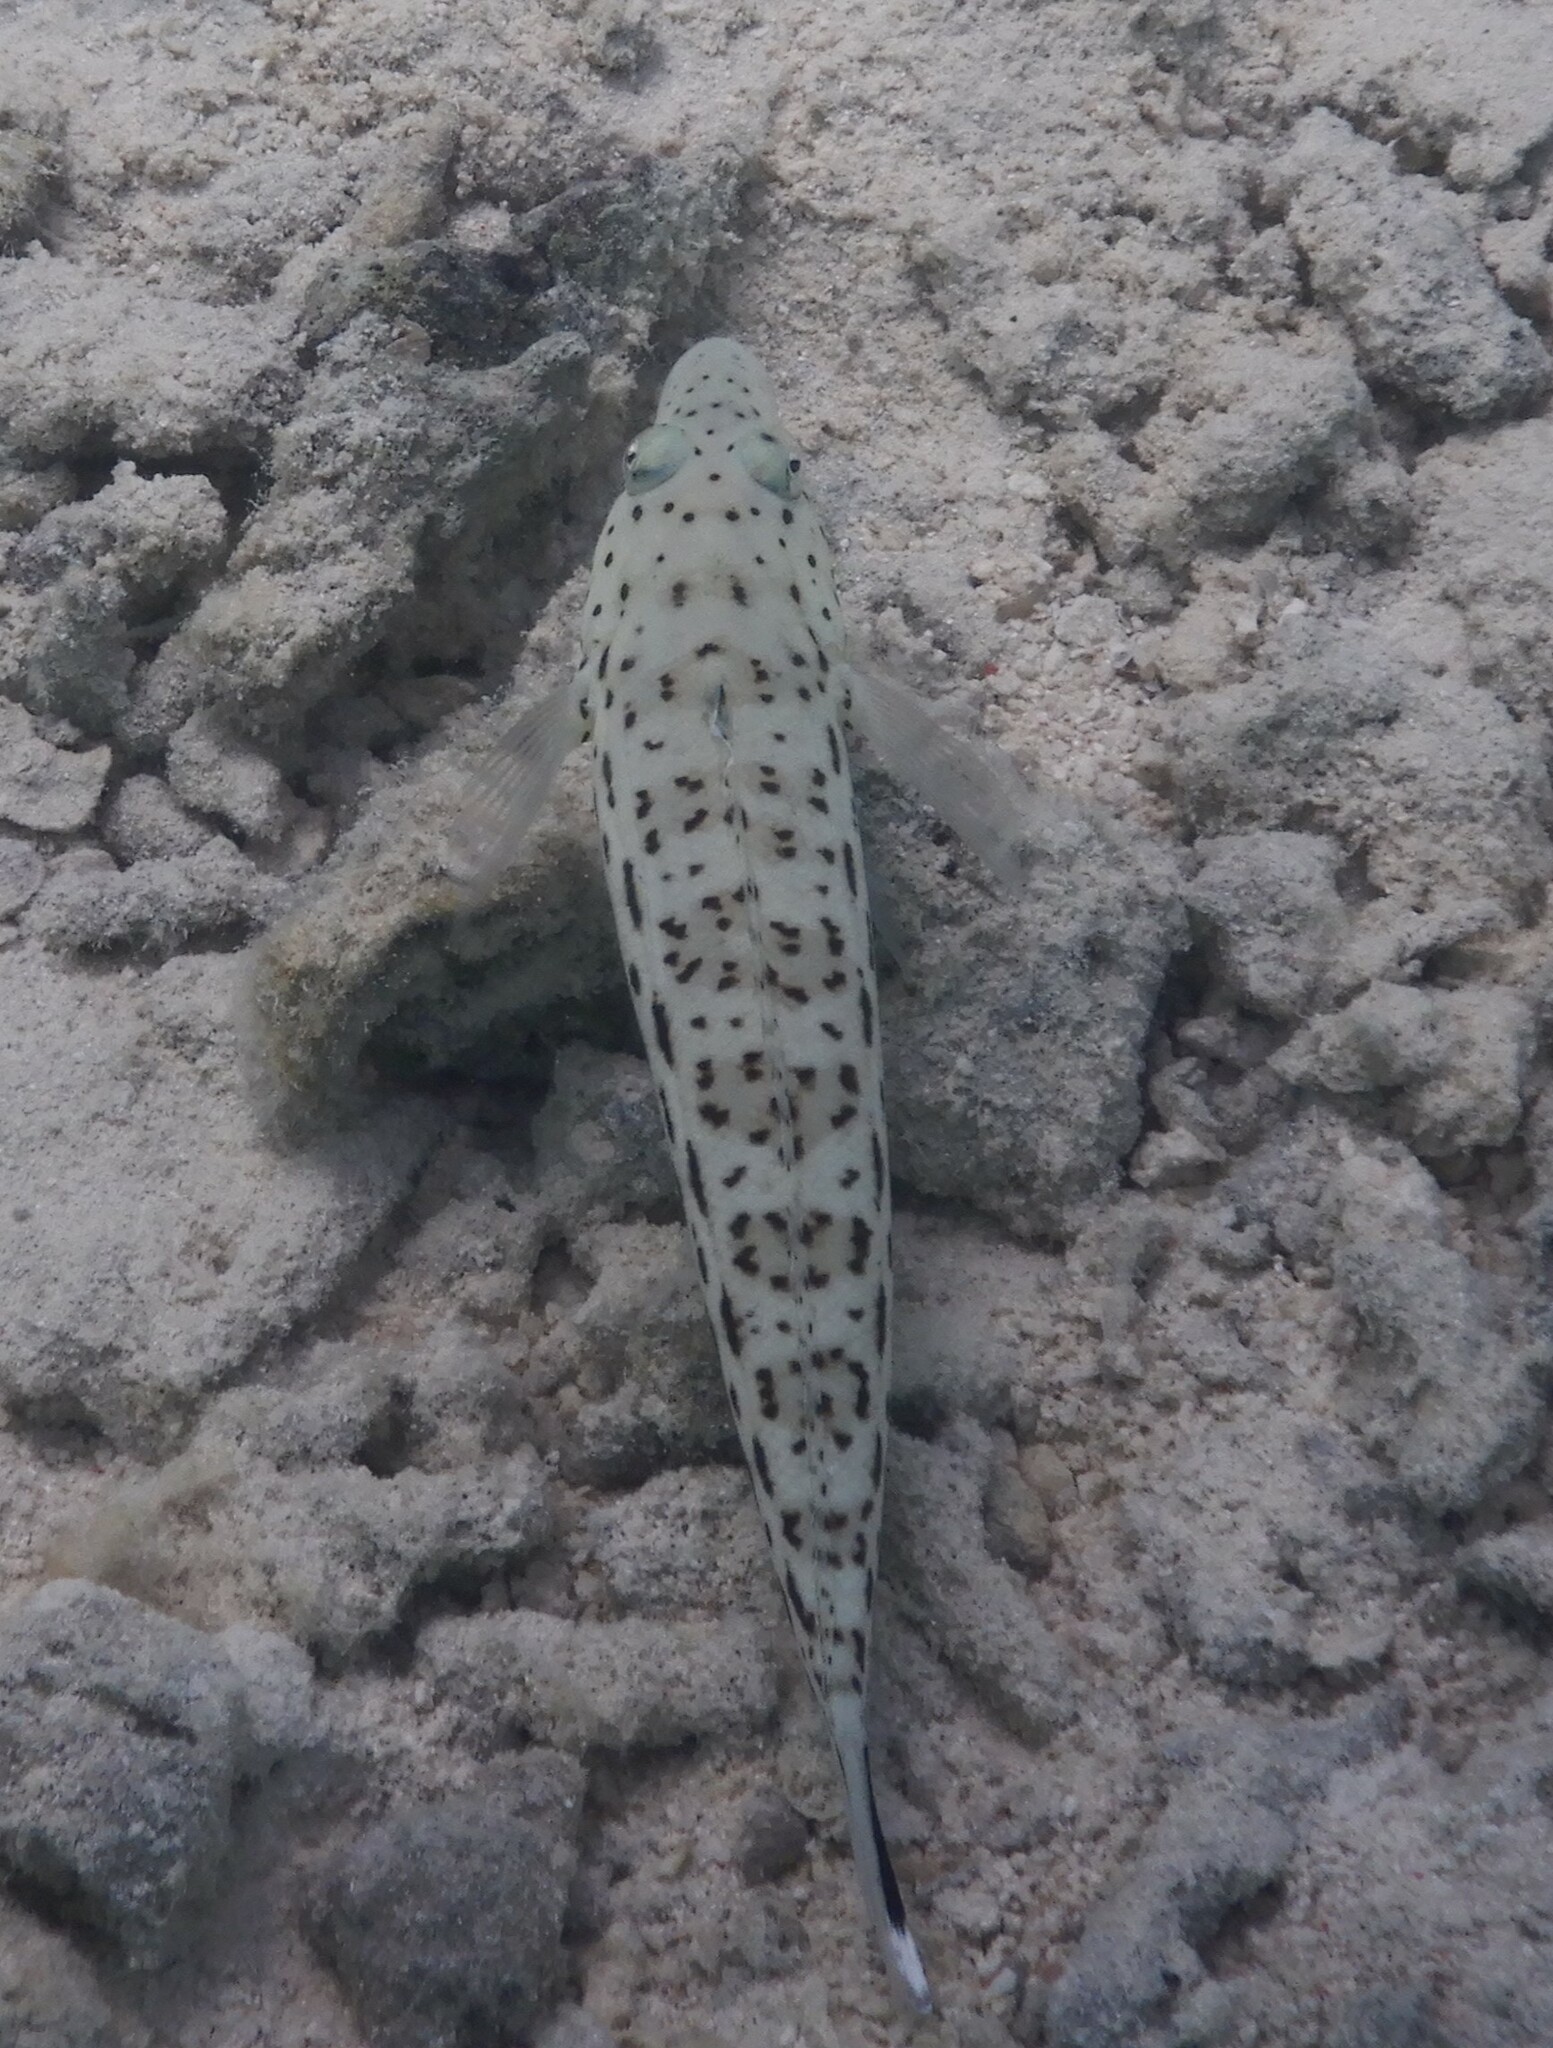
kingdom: Animalia
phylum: Chordata
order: Perciformes
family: Pinguipedidae
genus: Parapercis
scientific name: Parapercis hexophtalma
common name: Speckled sandperch
